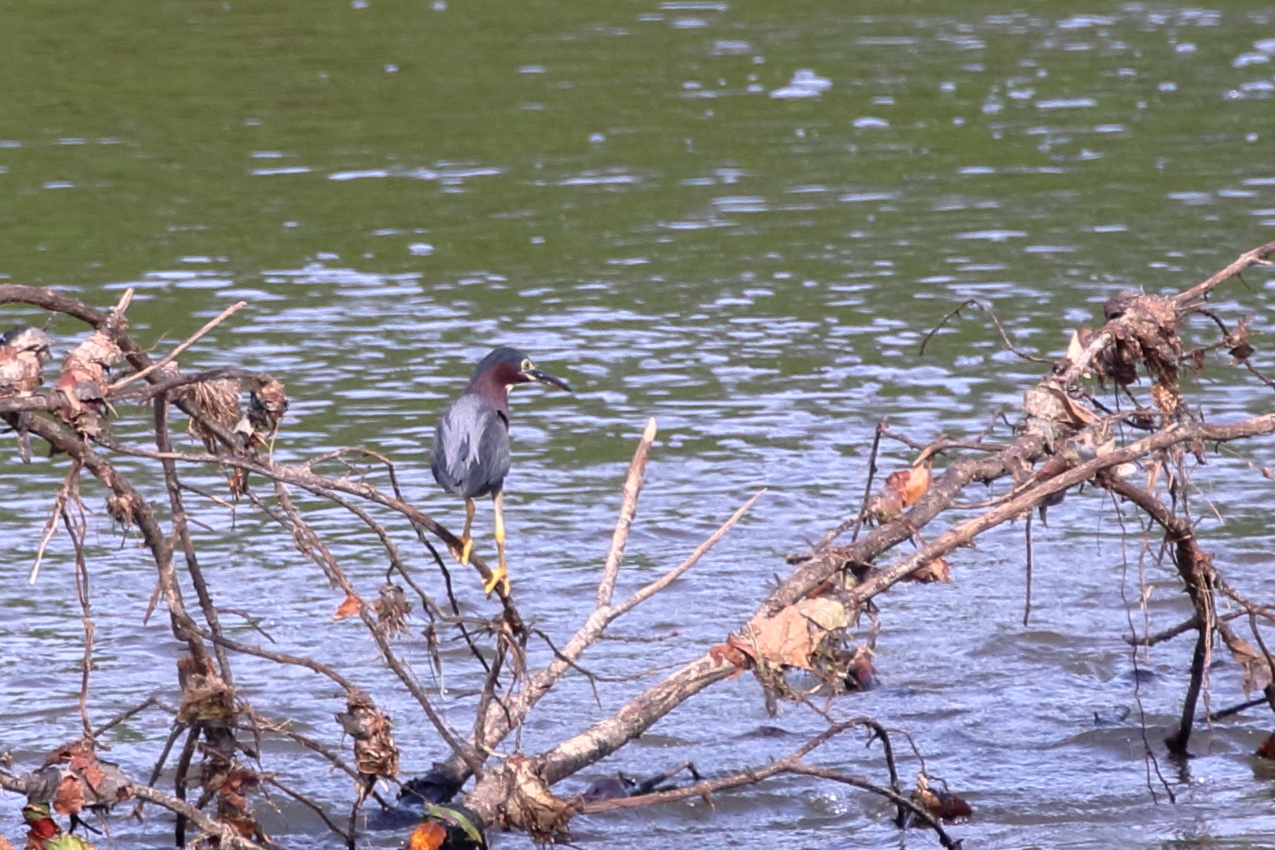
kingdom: Animalia
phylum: Chordata
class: Aves
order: Pelecaniformes
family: Ardeidae
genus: Butorides
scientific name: Butorides virescens
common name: Green heron
